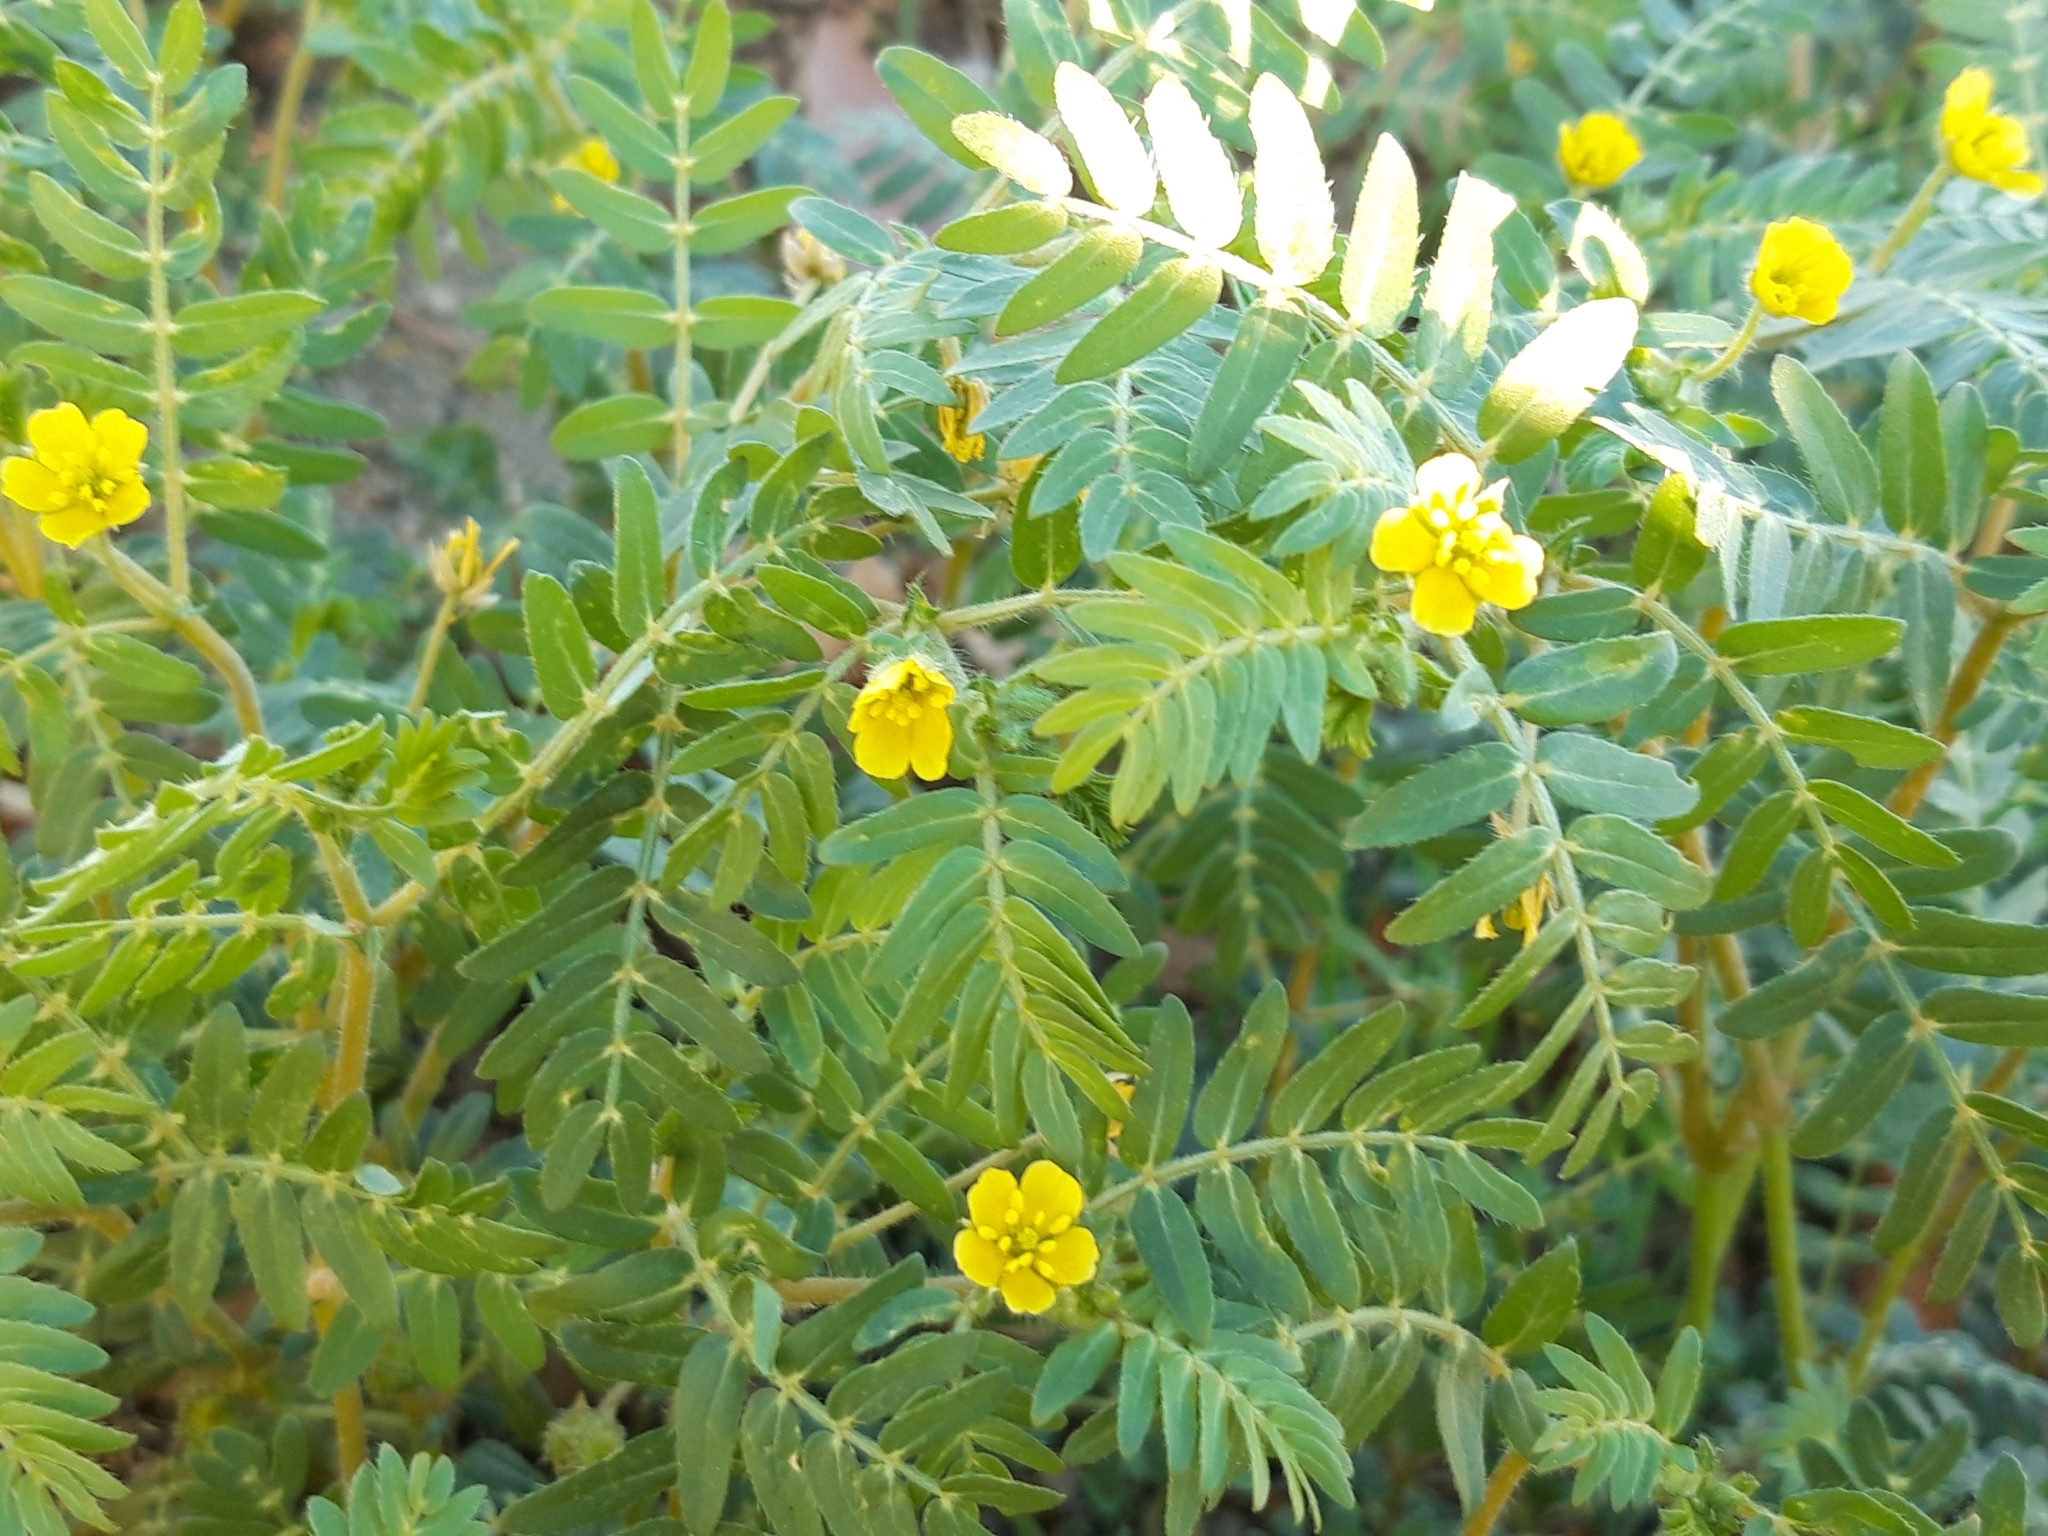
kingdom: Plantae
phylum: Tracheophyta
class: Magnoliopsida
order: Zygophyllales
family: Zygophyllaceae
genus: Tribulus
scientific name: Tribulus terrestris
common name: Puncturevine
